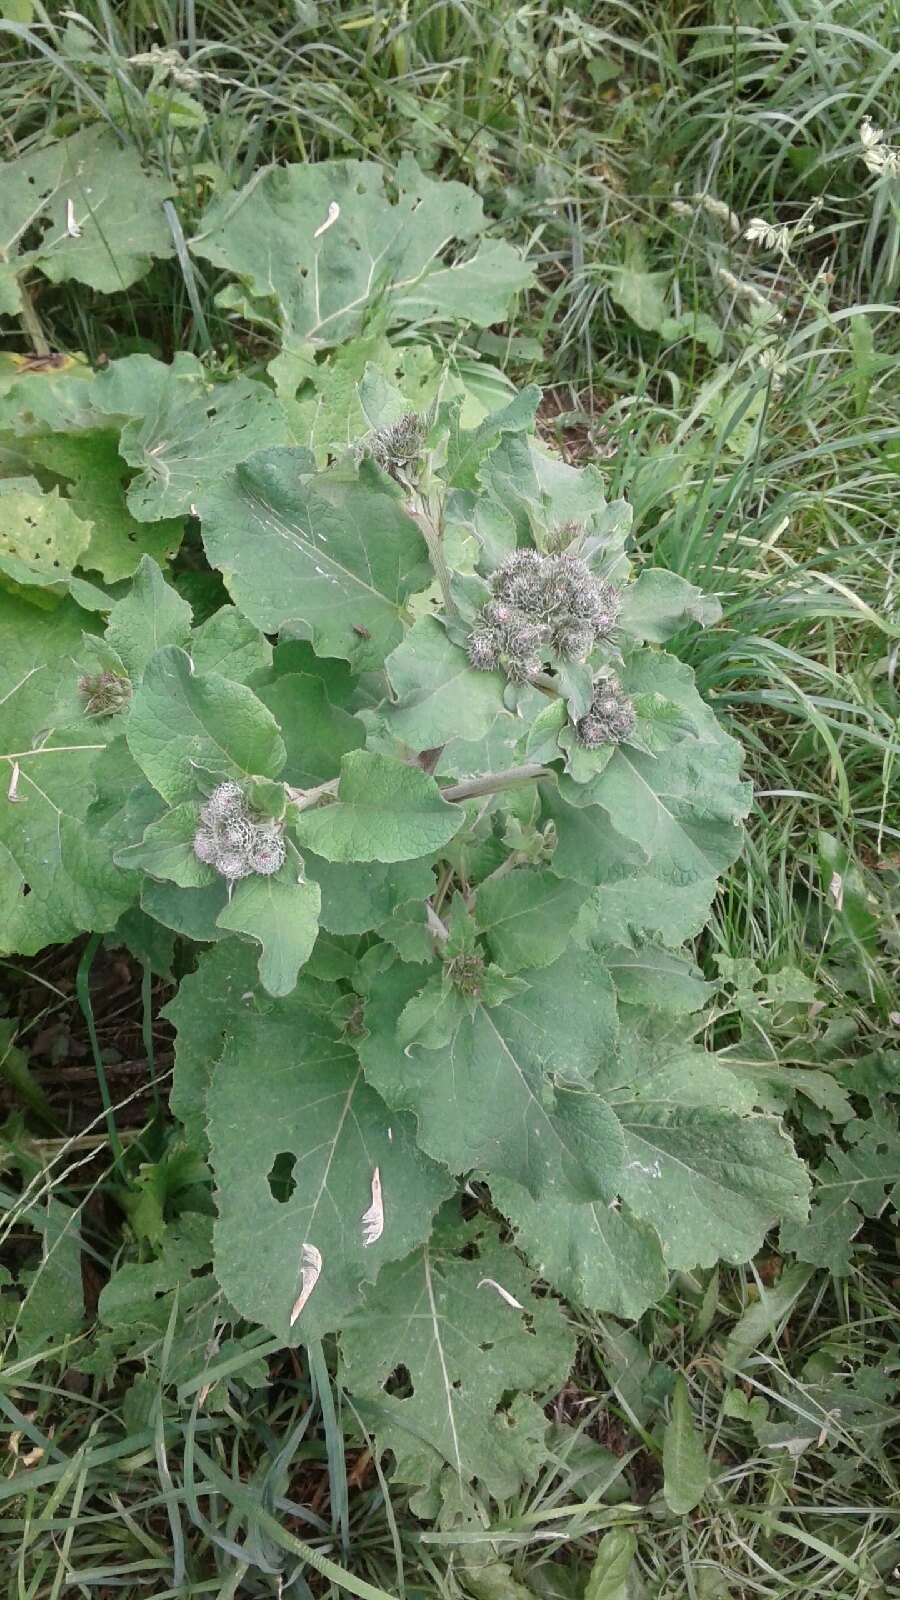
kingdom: Plantae
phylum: Tracheophyta
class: Magnoliopsida
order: Asterales
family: Asteraceae
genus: Arctium
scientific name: Arctium tomentosum
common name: Woolly burdock
